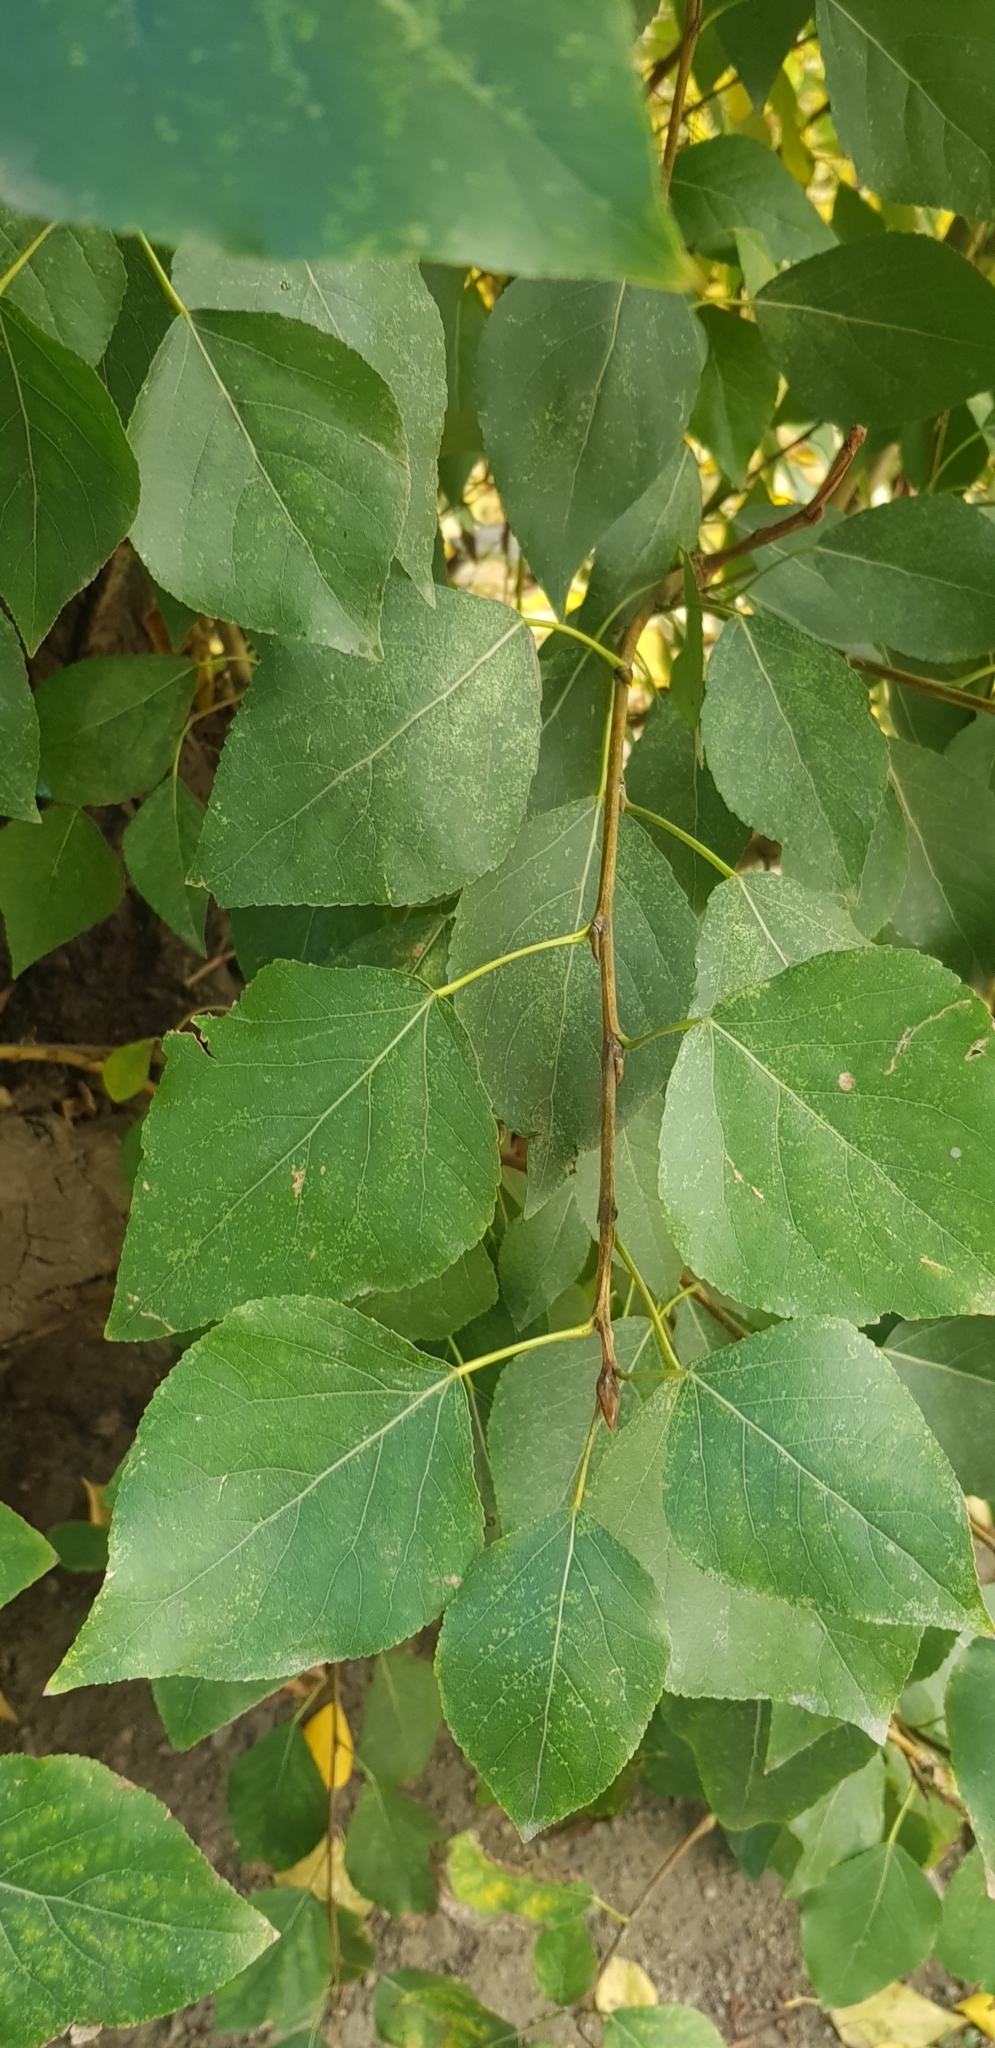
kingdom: Plantae
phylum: Tracheophyta
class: Magnoliopsida
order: Malpighiales
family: Salicaceae
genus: Populus
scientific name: Populus laurifolia
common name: Laurel-leaf poplar
